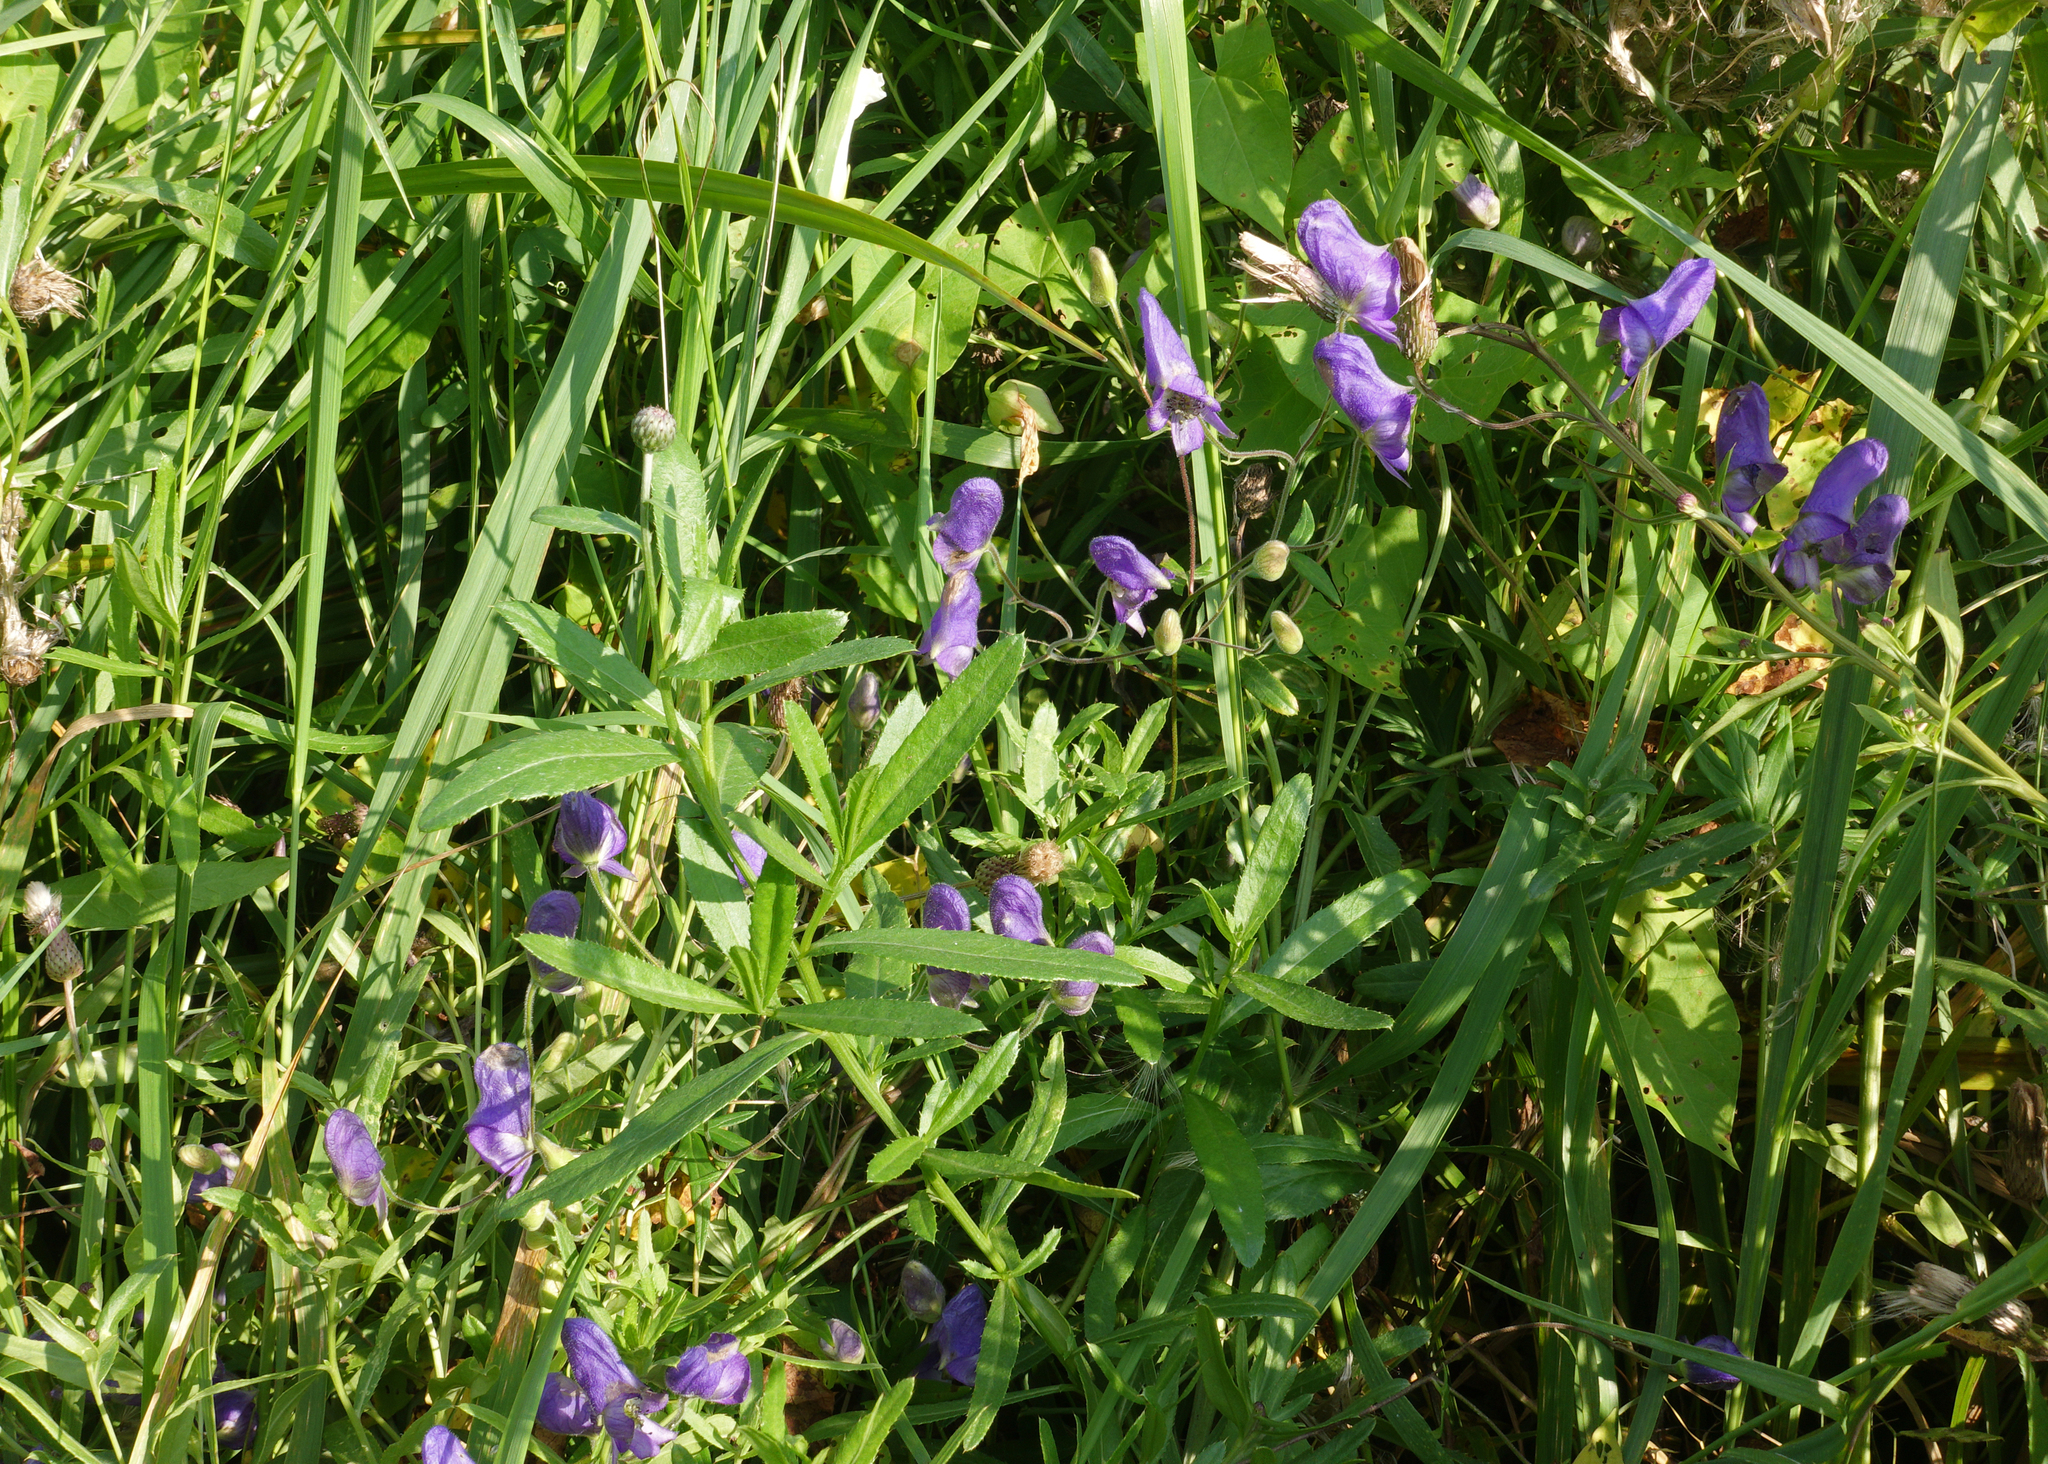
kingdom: Plantae
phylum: Tracheophyta
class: Magnoliopsida
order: Ranunculales
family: Ranunculaceae
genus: Aconitum
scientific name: Aconitum volubile
